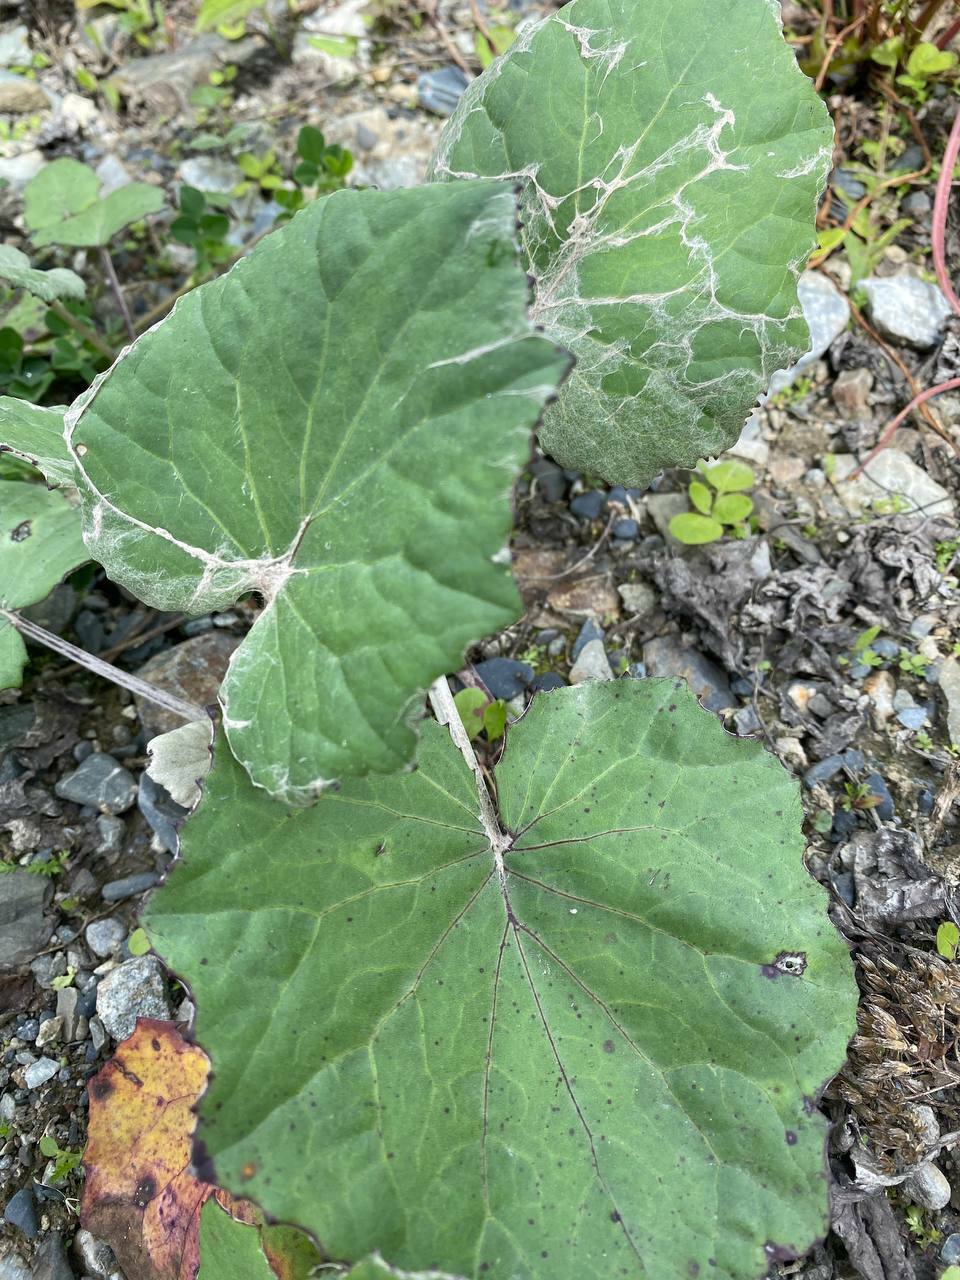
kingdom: Plantae
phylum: Tracheophyta
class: Magnoliopsida
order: Asterales
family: Asteraceae
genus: Tussilago
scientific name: Tussilago farfara
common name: Coltsfoot
